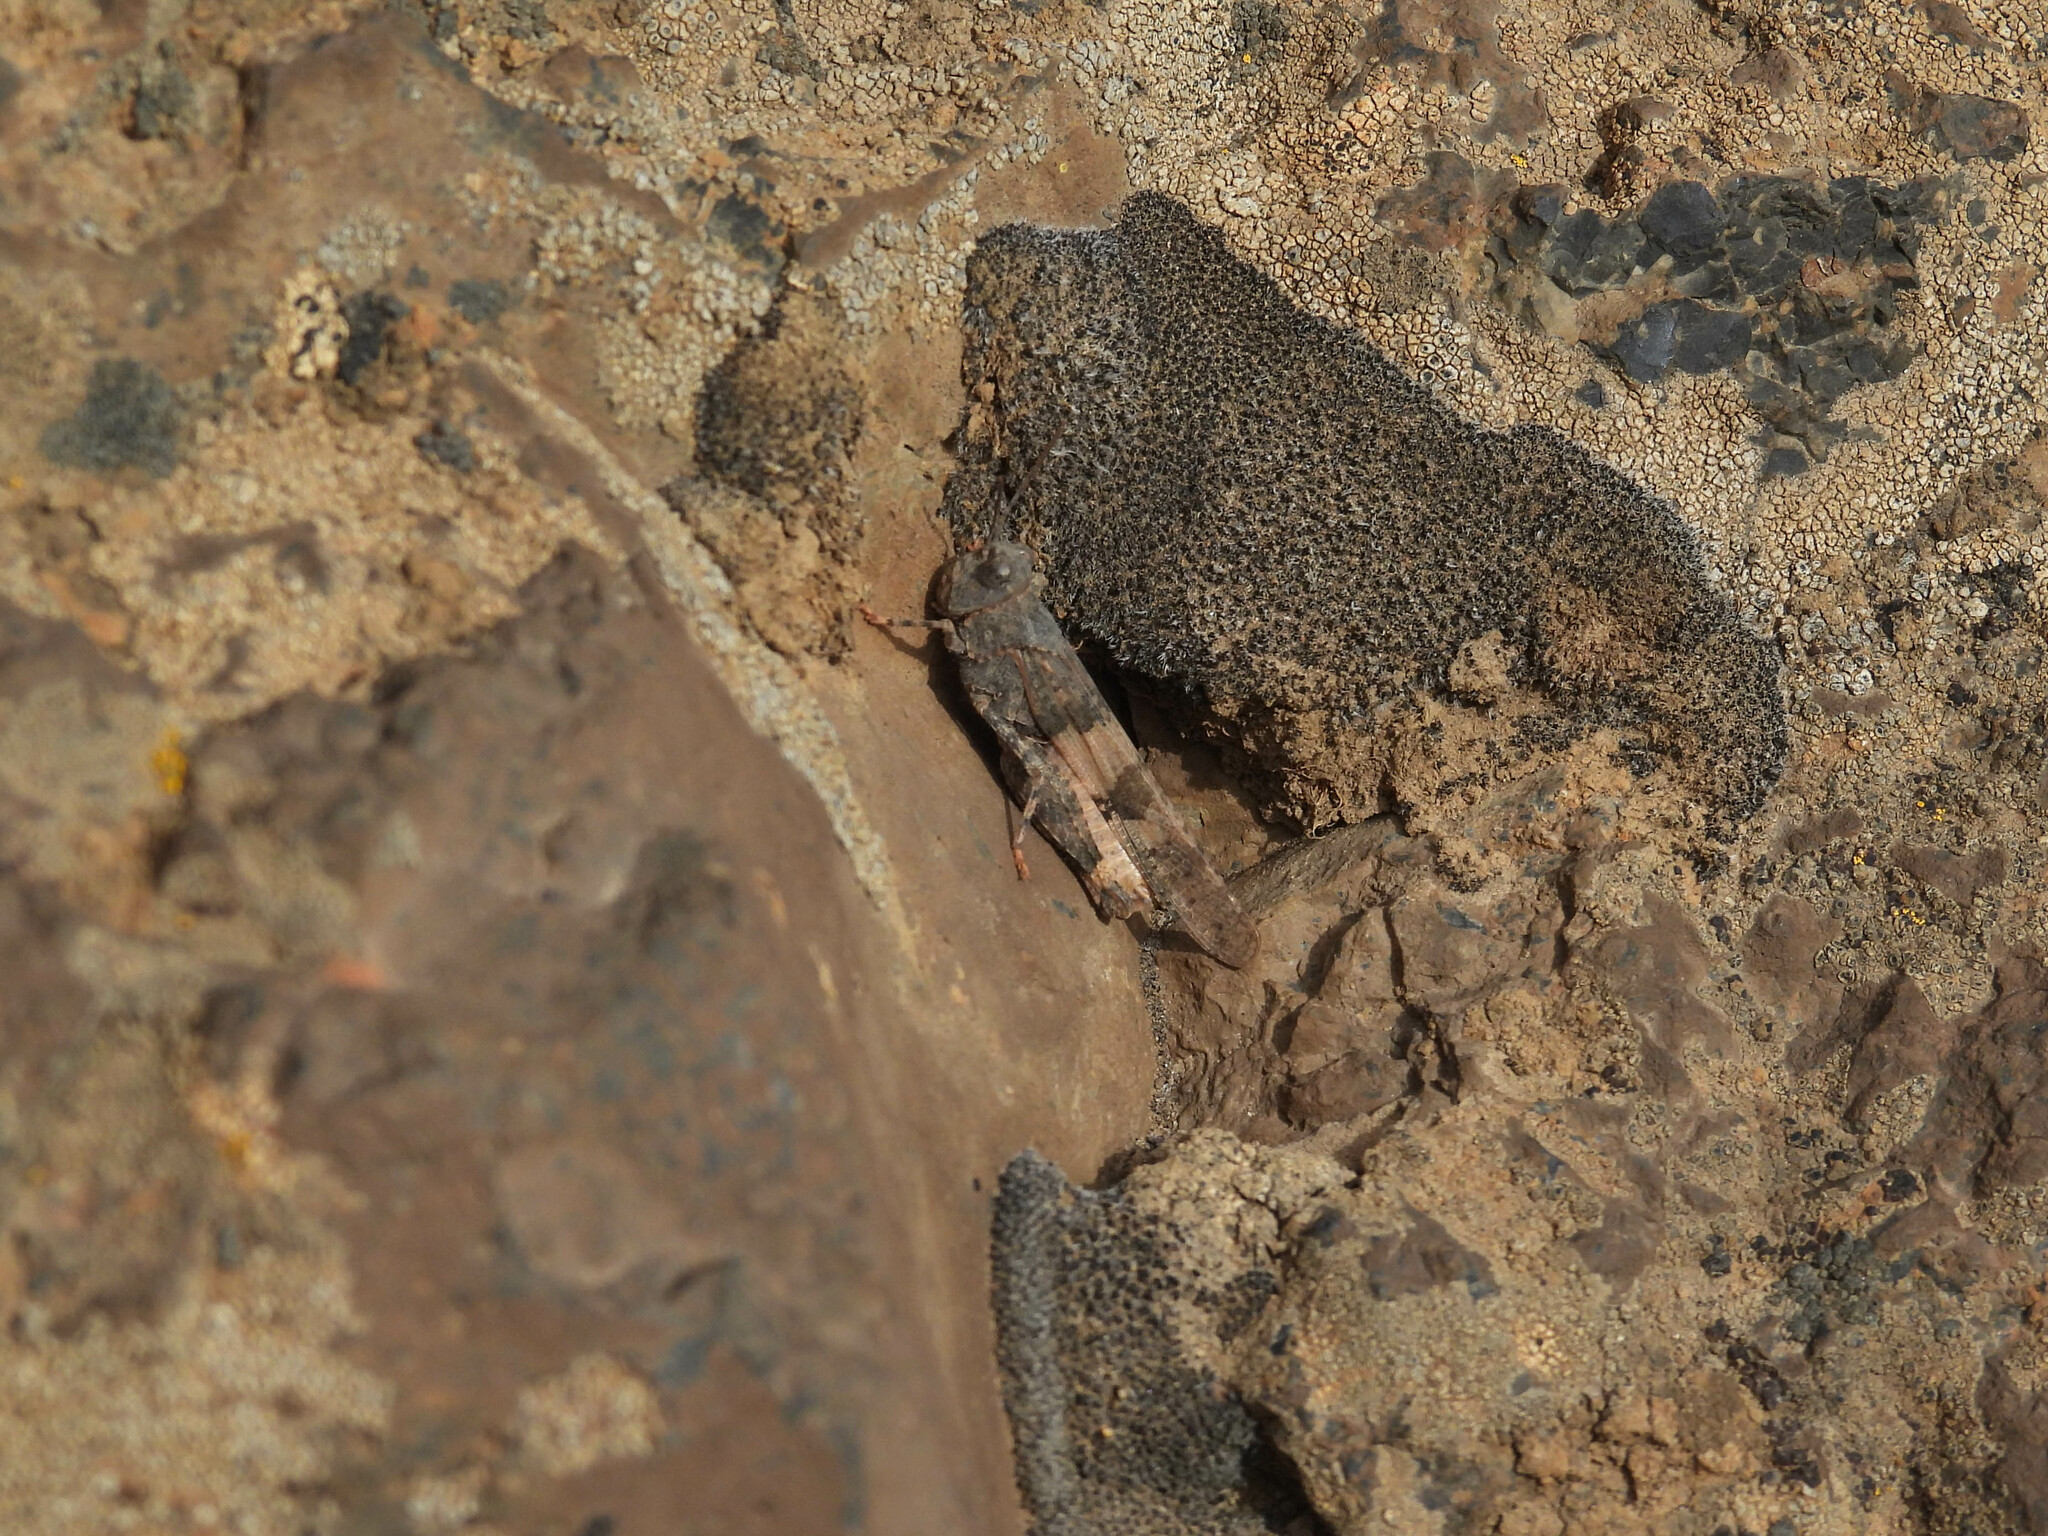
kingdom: Animalia
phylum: Arthropoda
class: Insecta
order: Orthoptera
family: Acrididae
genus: Trimerotropis
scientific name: Trimerotropis pallidipennis
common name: Pallid-winged grasshopper
